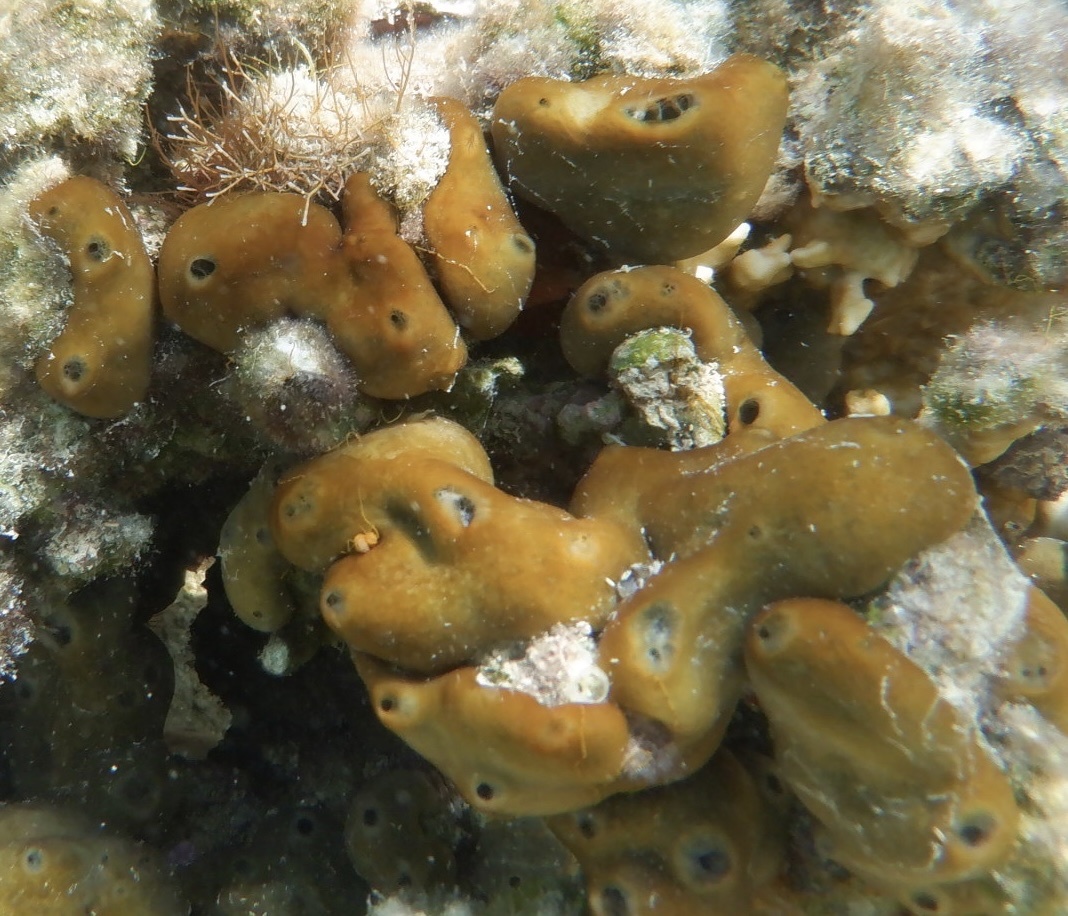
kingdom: Animalia
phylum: Porifera
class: Demospongiae
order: Chondrillida
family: Chondrillidae
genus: Chondrilla
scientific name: Chondrilla nucula
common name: Chicken liver sponge
